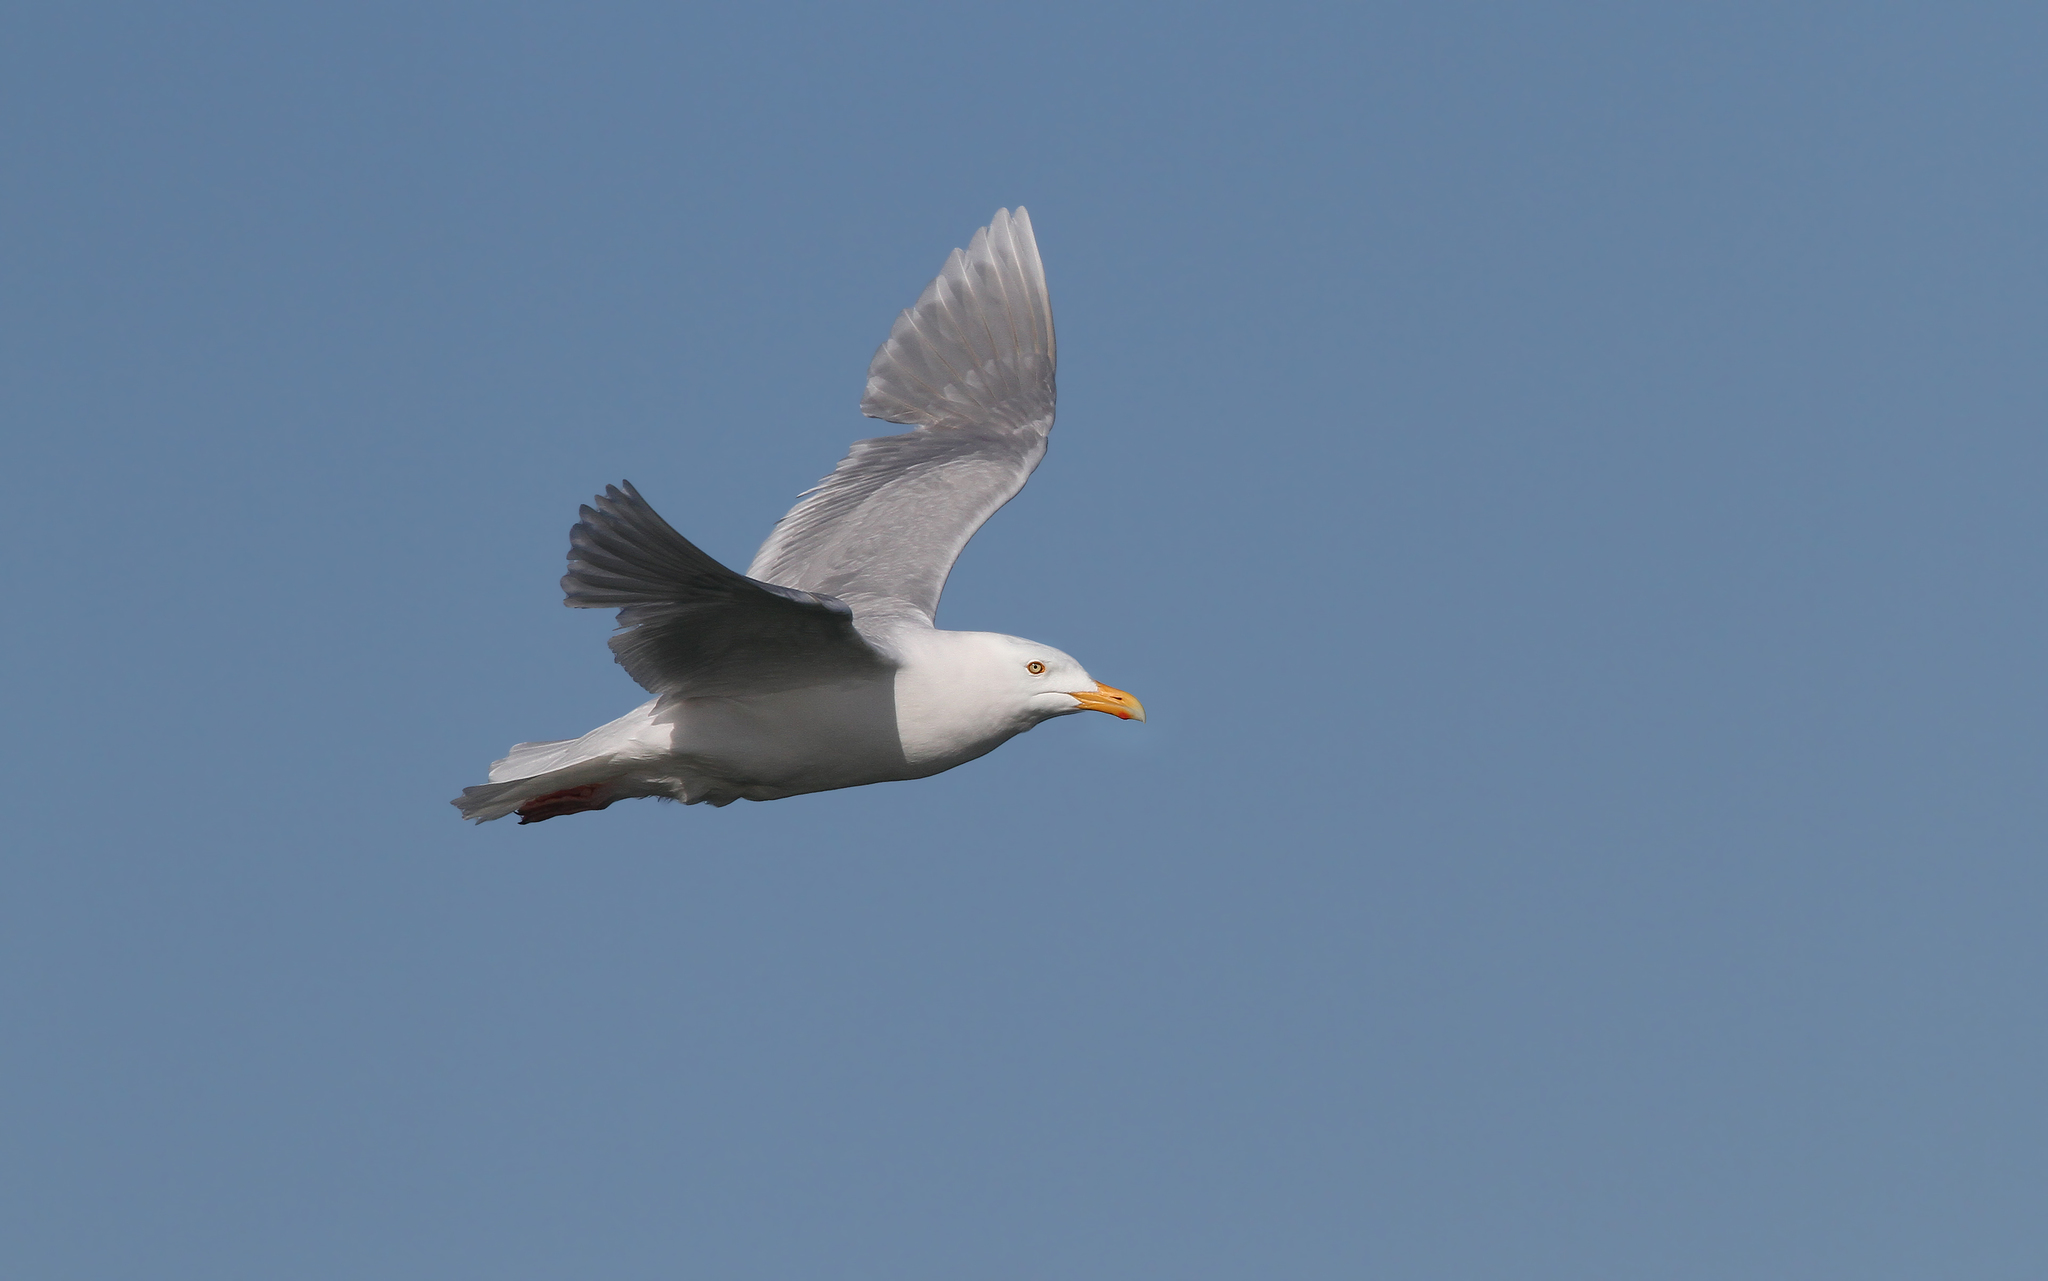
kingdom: Animalia
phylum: Chordata
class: Aves
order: Charadriiformes
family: Laridae
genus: Larus
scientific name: Larus hyperboreus
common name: Glaucous gull
